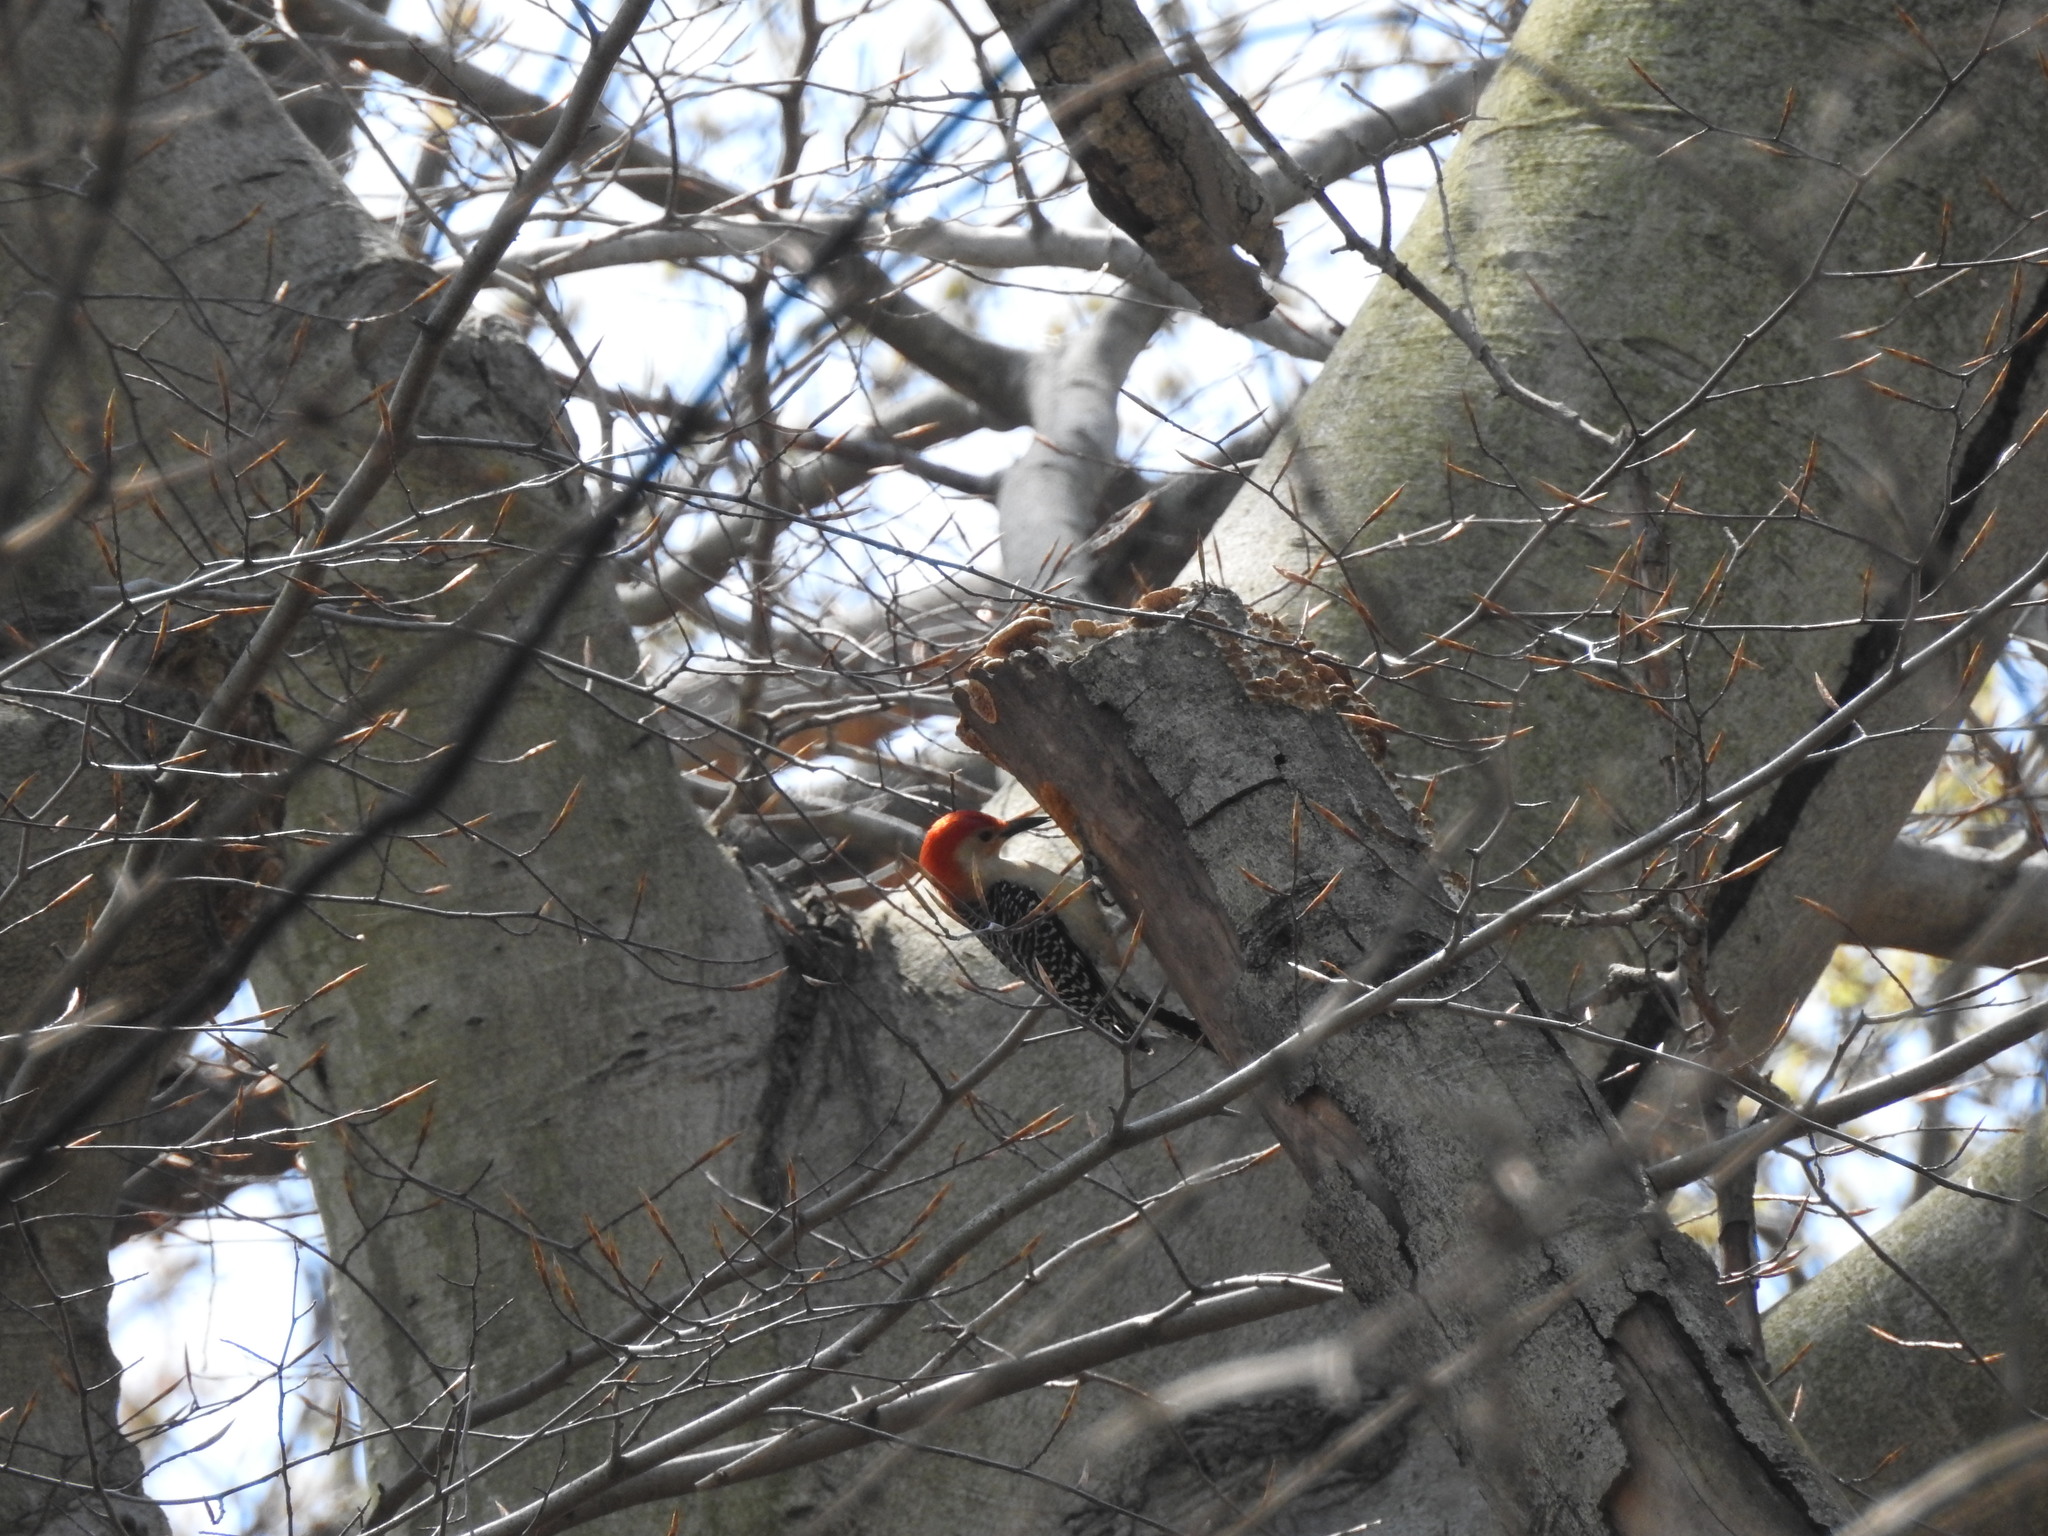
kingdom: Animalia
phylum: Chordata
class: Aves
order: Piciformes
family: Picidae
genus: Melanerpes
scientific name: Melanerpes carolinus
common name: Red-bellied woodpecker
